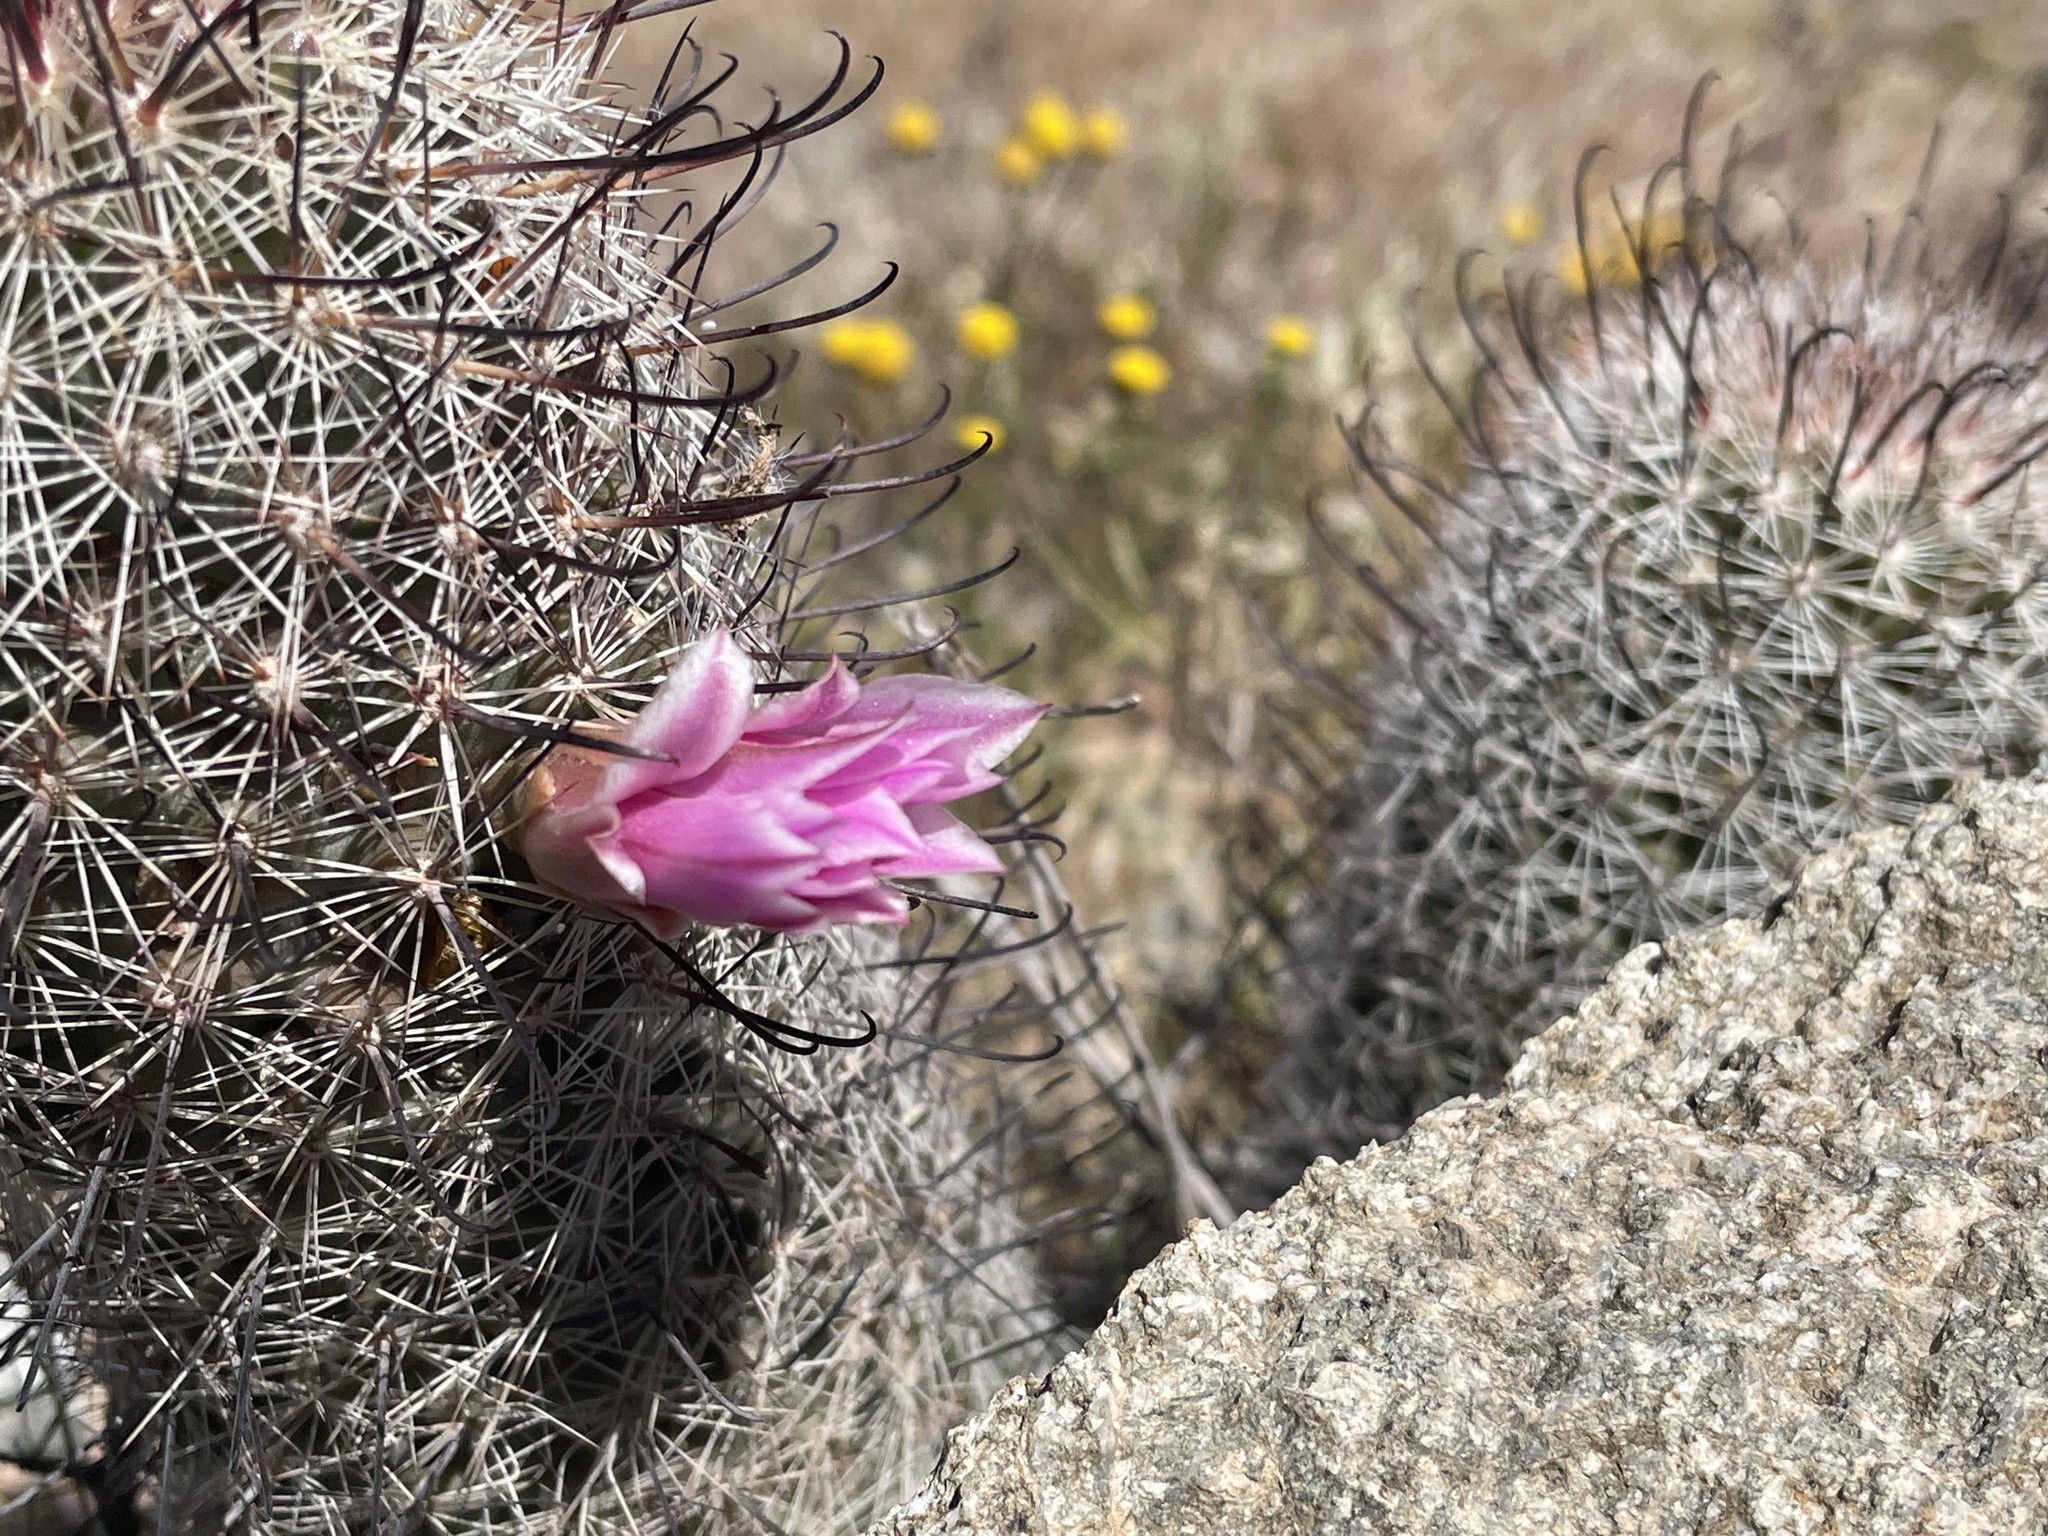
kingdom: Plantae
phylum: Tracheophyta
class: Magnoliopsida
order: Caryophyllales
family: Cactaceae
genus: Cochemiea
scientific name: Cochemiea grahamii
